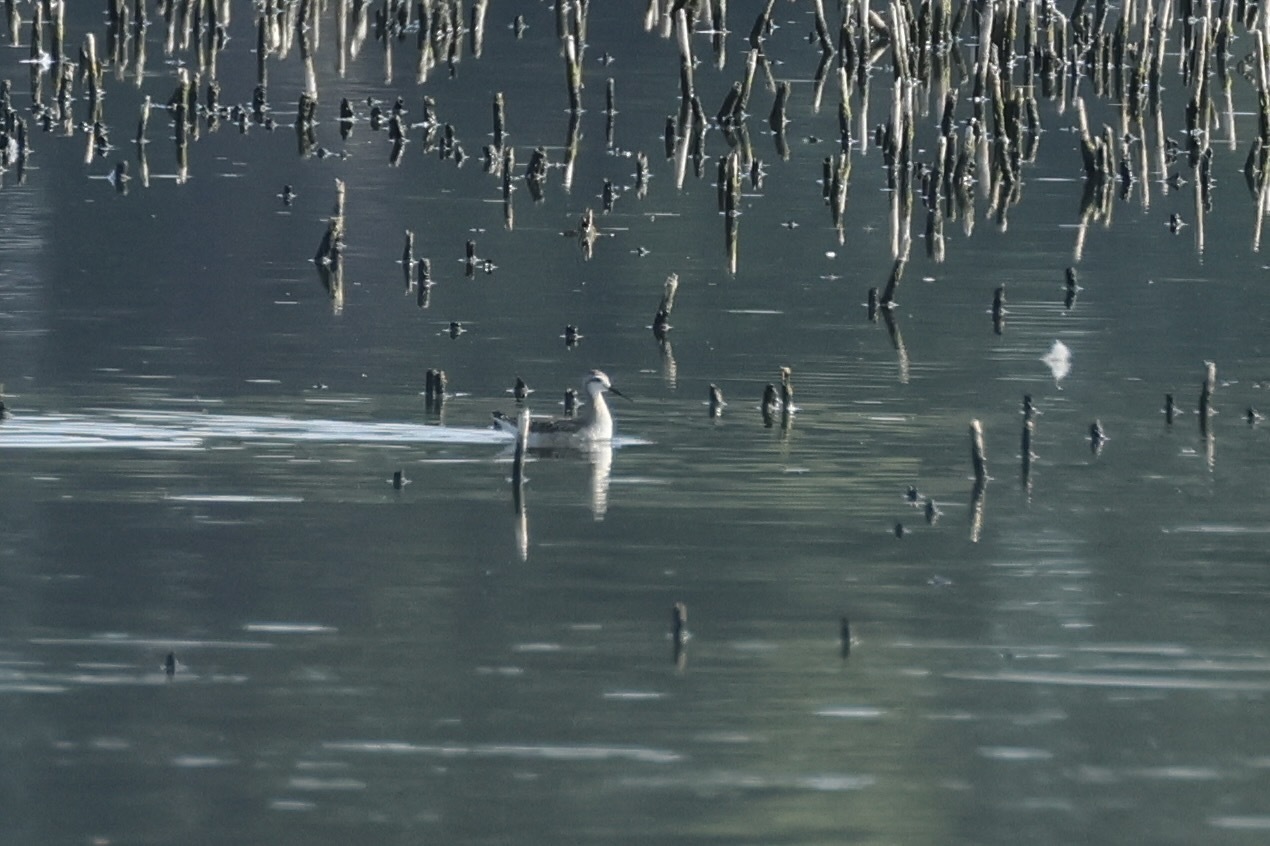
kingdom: Animalia
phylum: Chordata
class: Aves
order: Charadriiformes
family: Scolopacidae
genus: Phalaropus
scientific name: Phalaropus tricolor
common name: Wilson's phalarope
